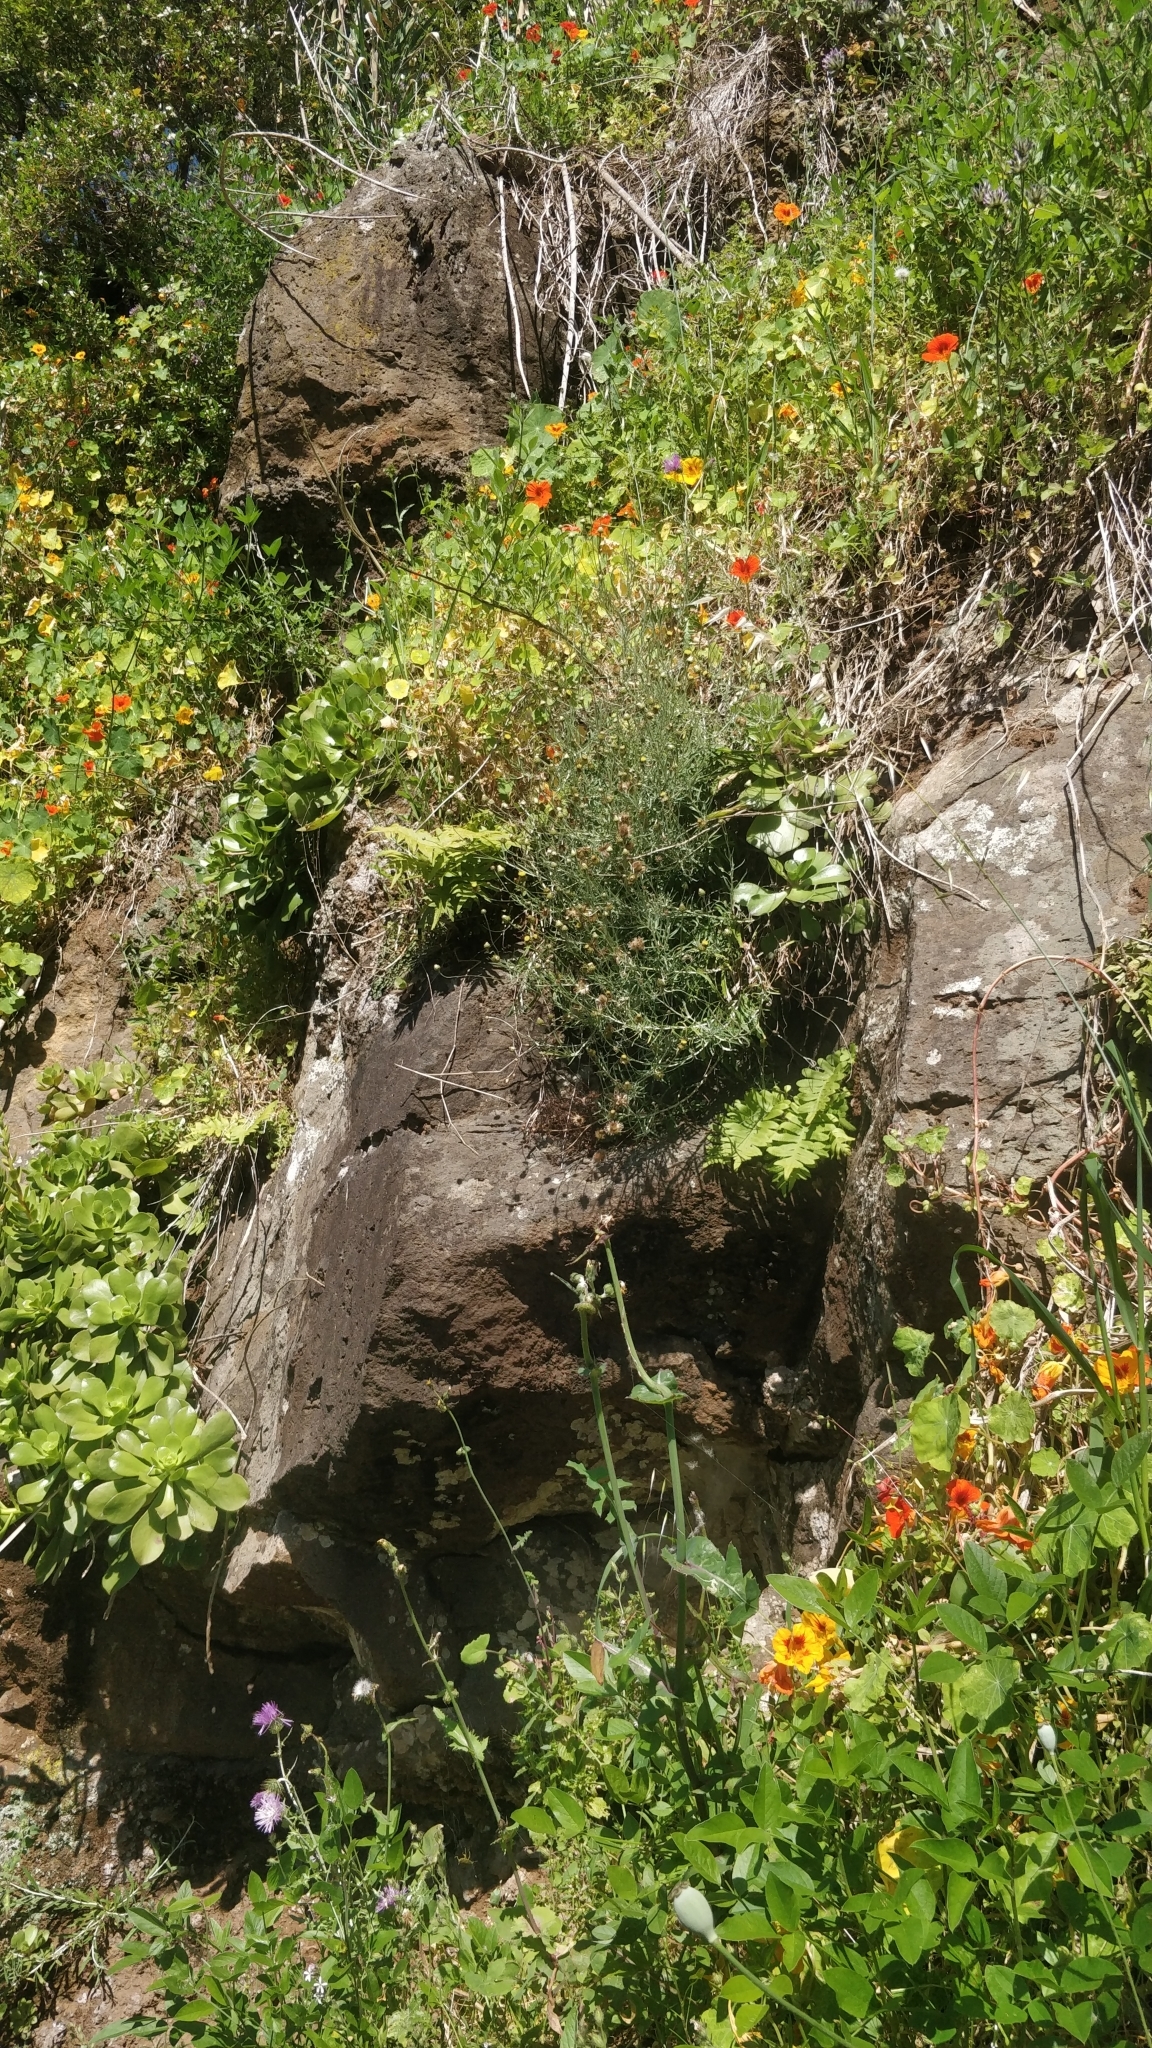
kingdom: Plantae
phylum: Tracheophyta
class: Magnoliopsida
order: Asterales
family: Asteraceae
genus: Phagnalon
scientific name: Phagnalon saxatile
